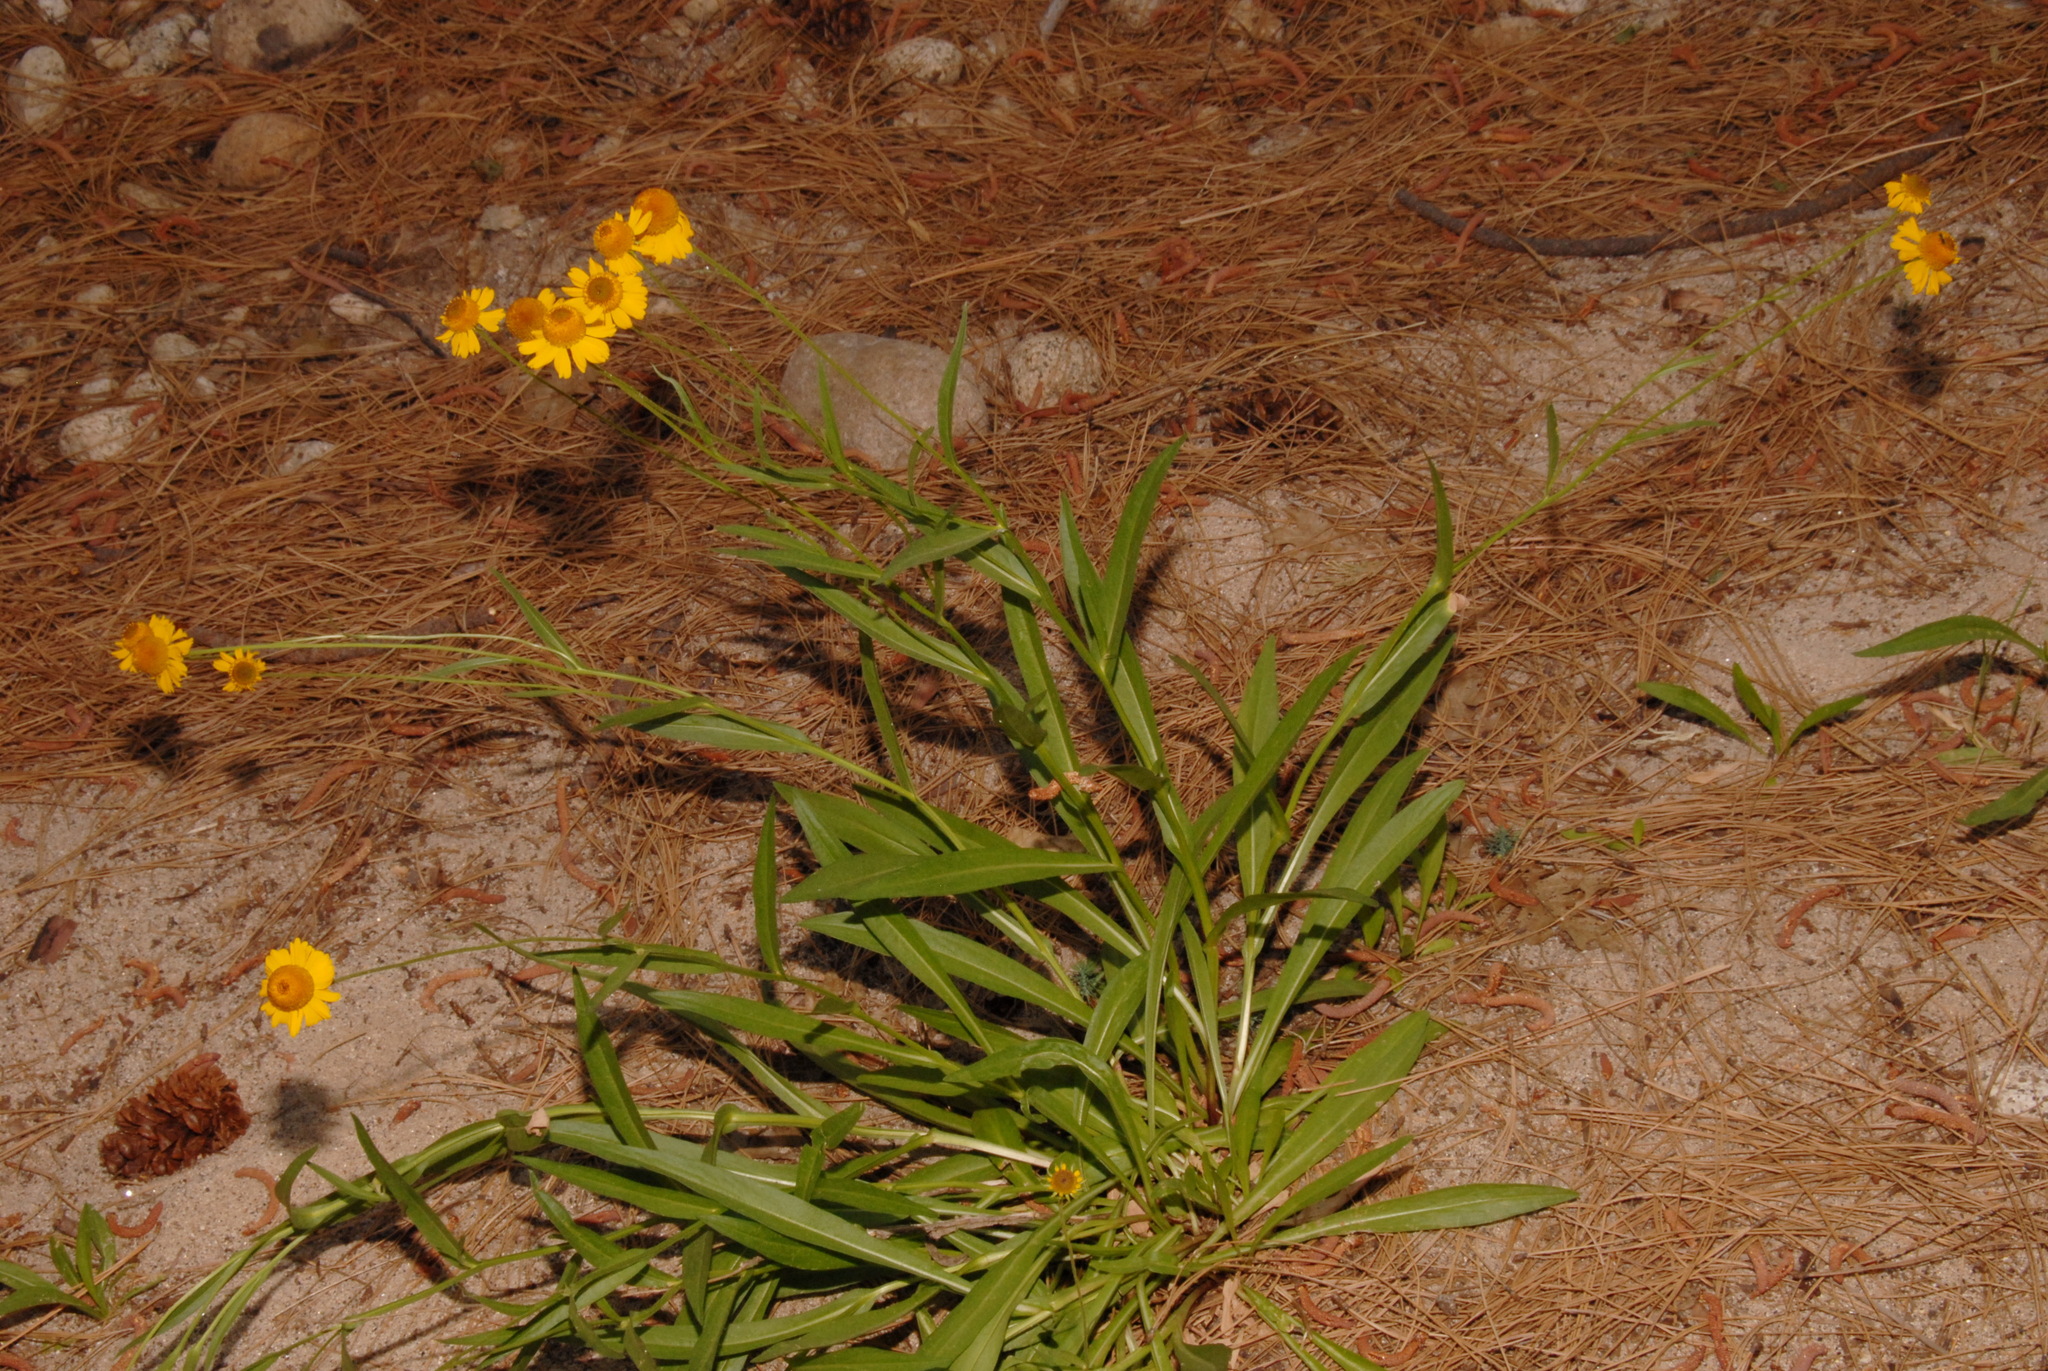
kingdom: Plantae
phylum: Tracheophyta
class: Magnoliopsida
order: Asterales
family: Asteraceae
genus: Helenium
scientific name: Helenium bigelovii
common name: Bigelow's sneezeweed
